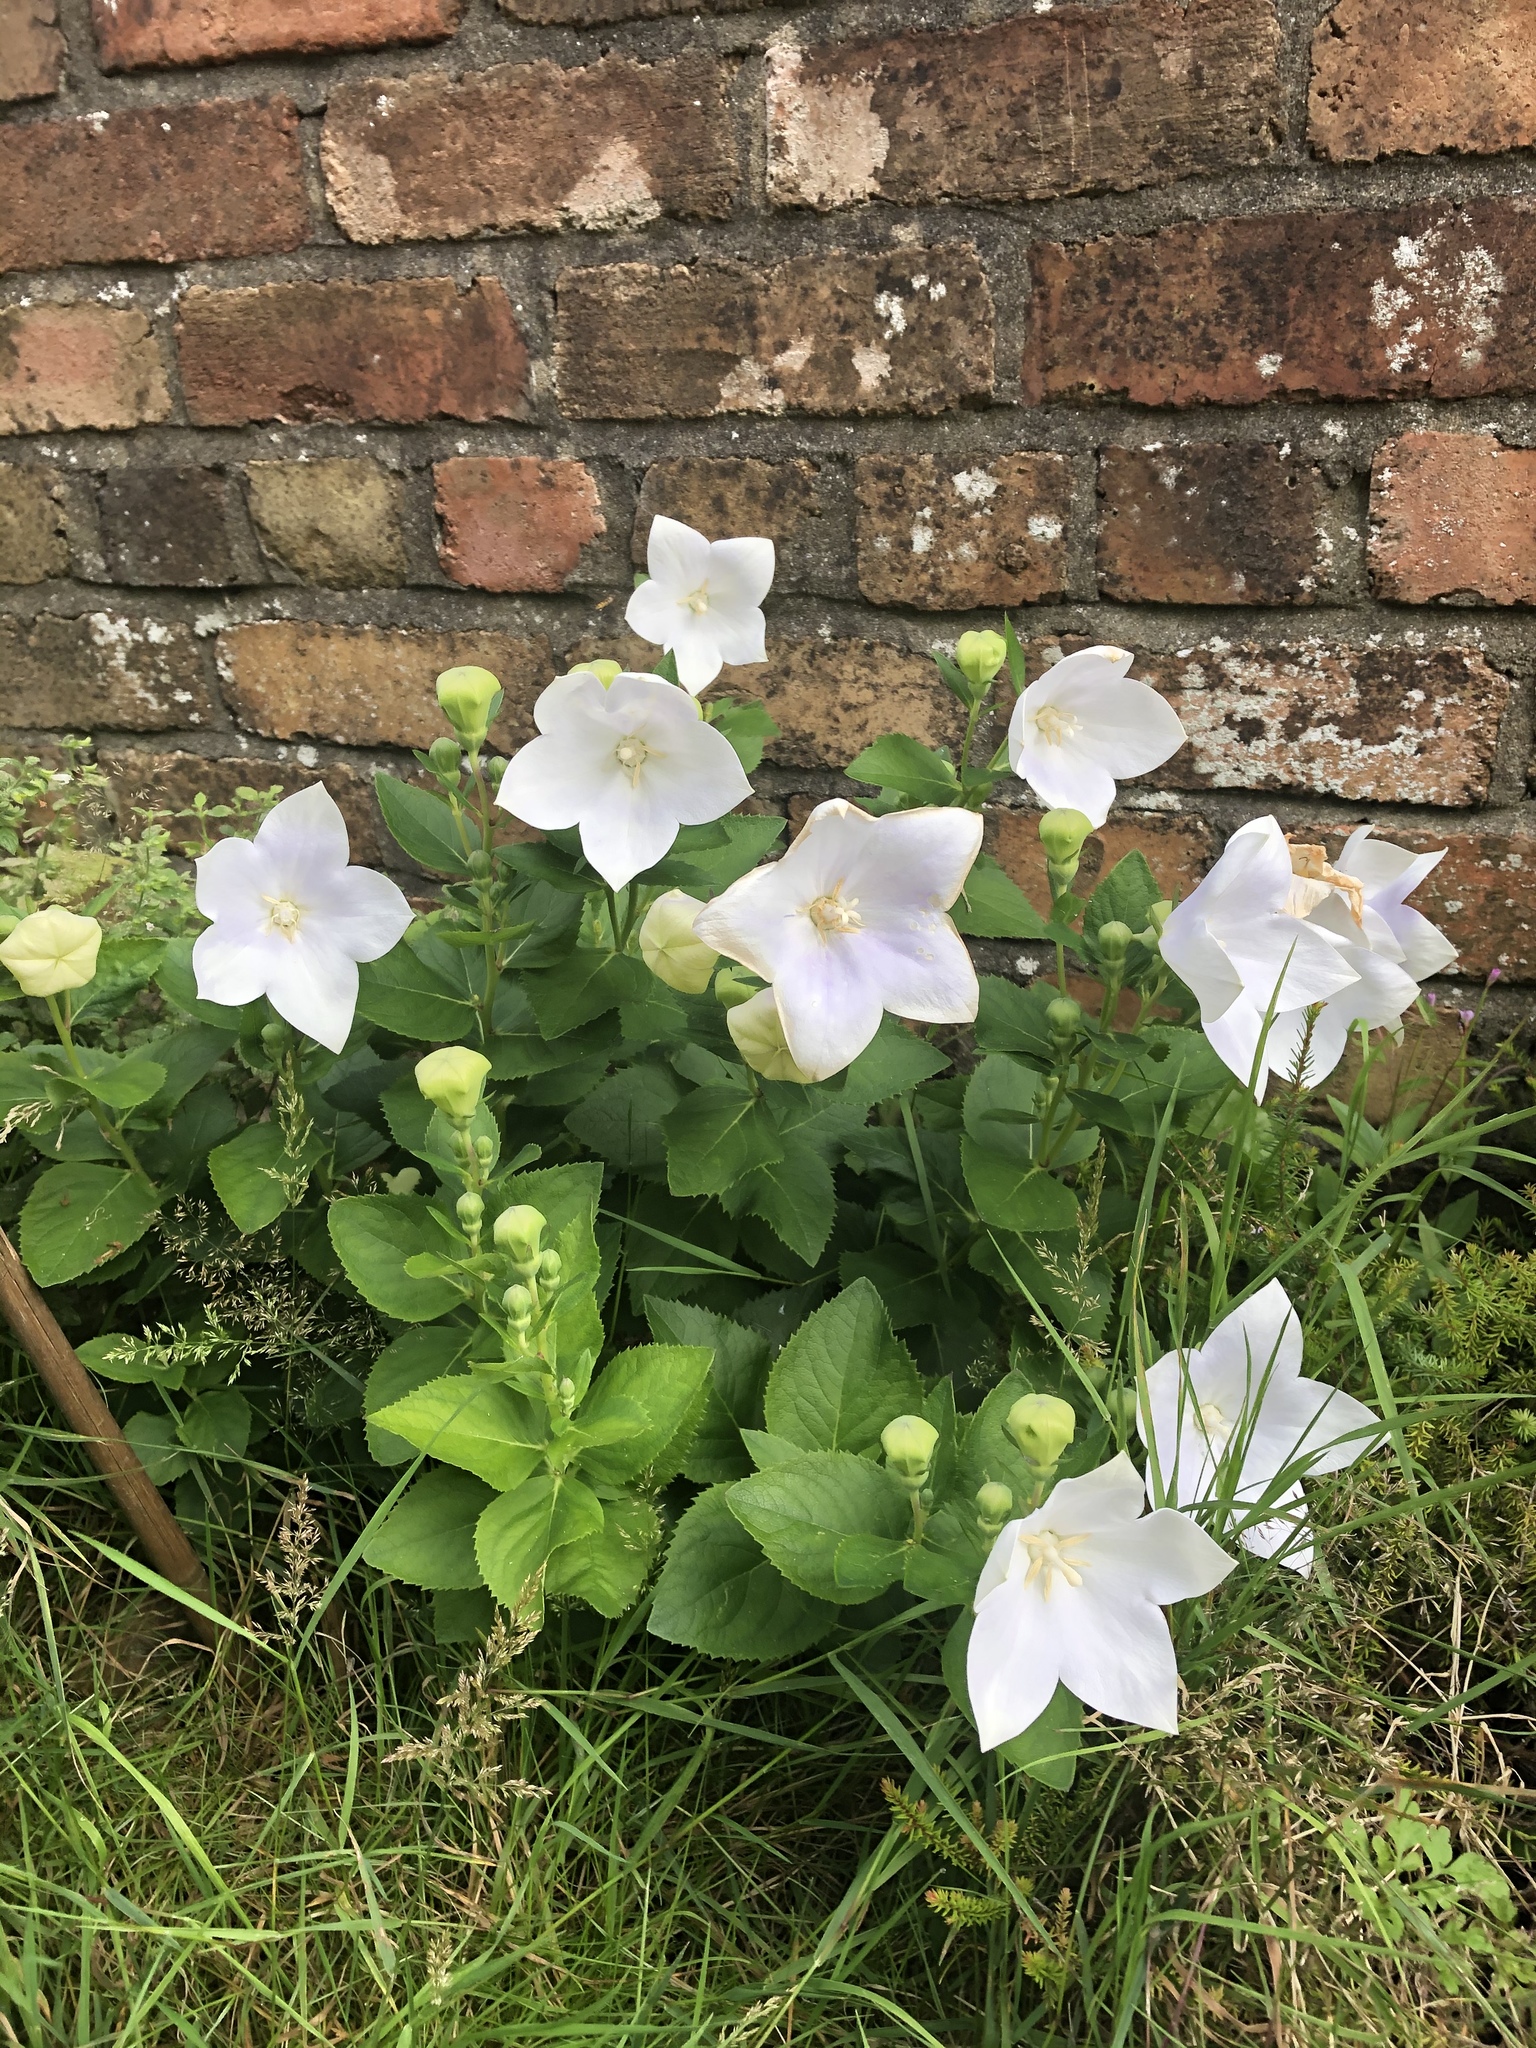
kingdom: Plantae
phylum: Tracheophyta
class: Magnoliopsida
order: Asterales
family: Campanulaceae
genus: Platycodon
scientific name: Platycodon grandiflorus
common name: Balloon-flower
